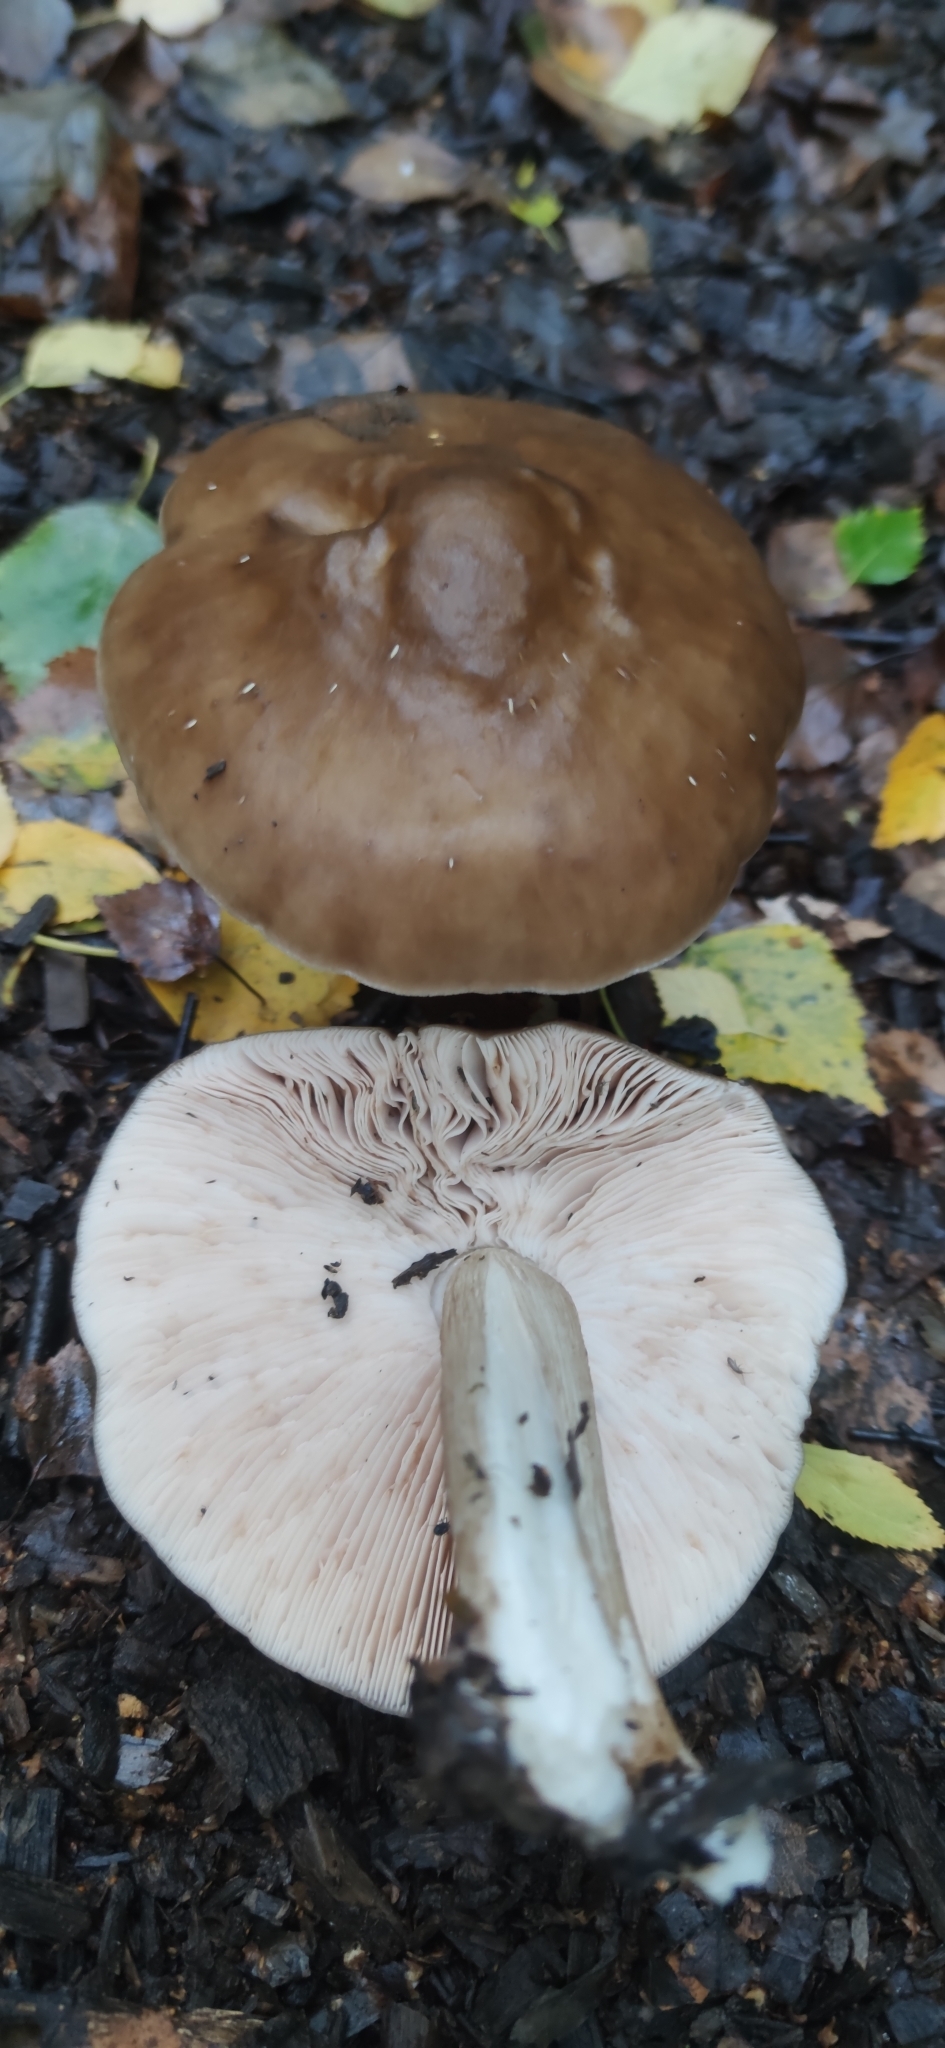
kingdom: Fungi
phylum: Basidiomycota
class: Agaricomycetes
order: Agaricales
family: Pluteaceae
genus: Pluteus
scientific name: Pluteus cervinus
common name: Deer shield
